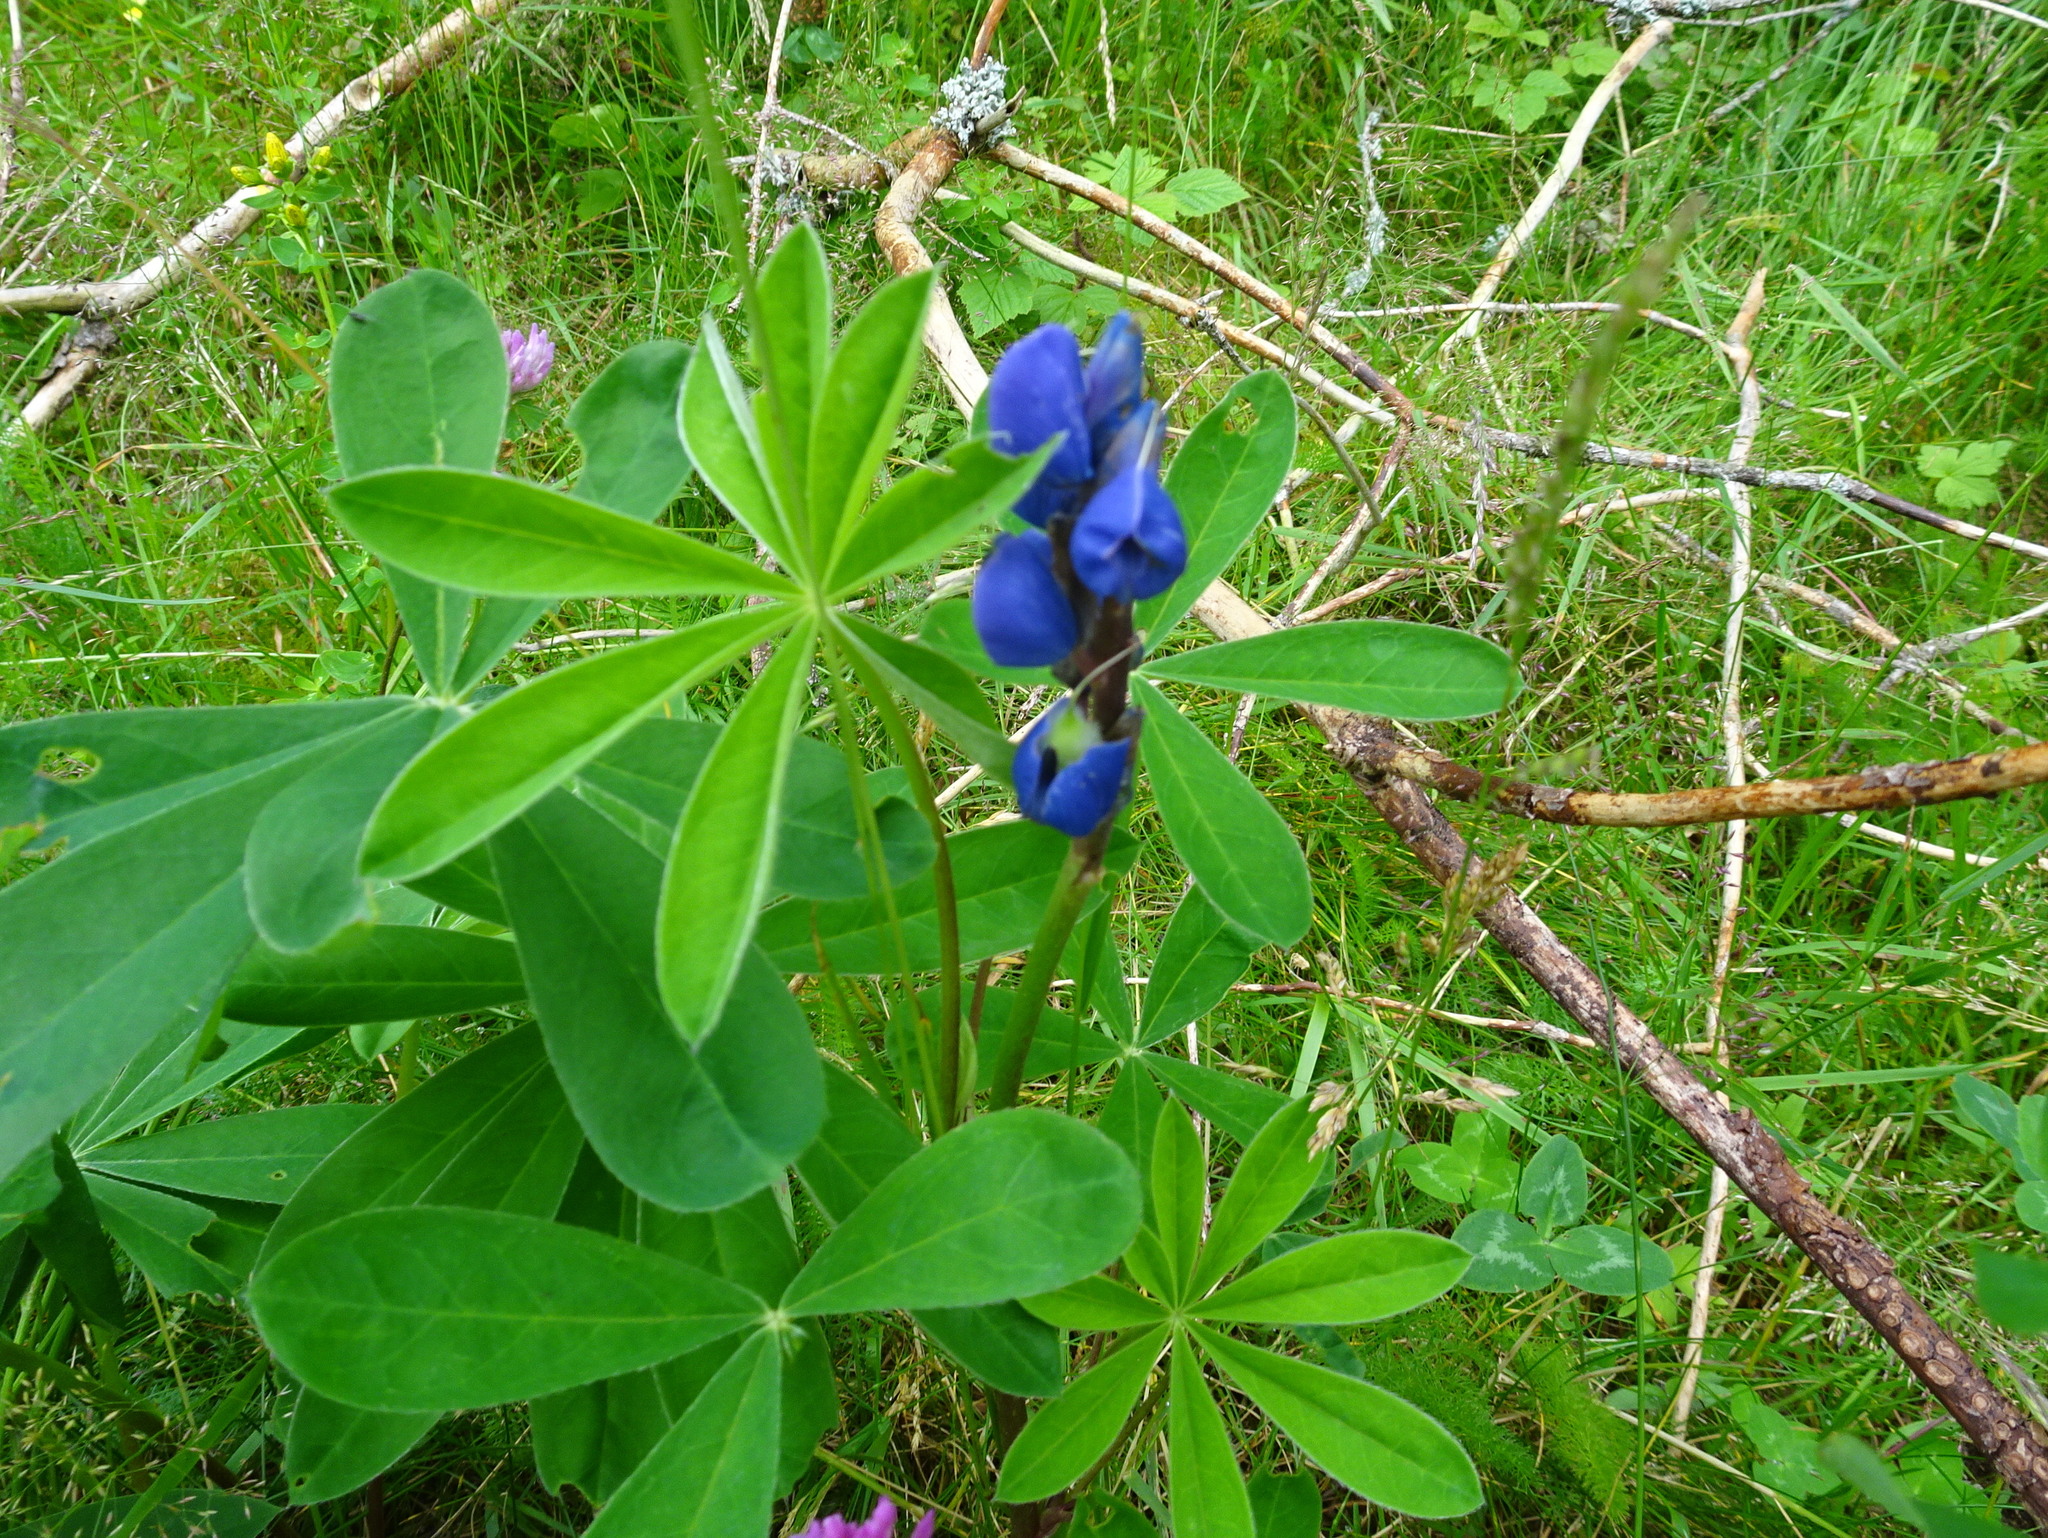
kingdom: Plantae
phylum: Tracheophyta
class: Magnoliopsida
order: Fabales
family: Fabaceae
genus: Lupinus
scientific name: Lupinus polyphyllus
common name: Garden lupin
